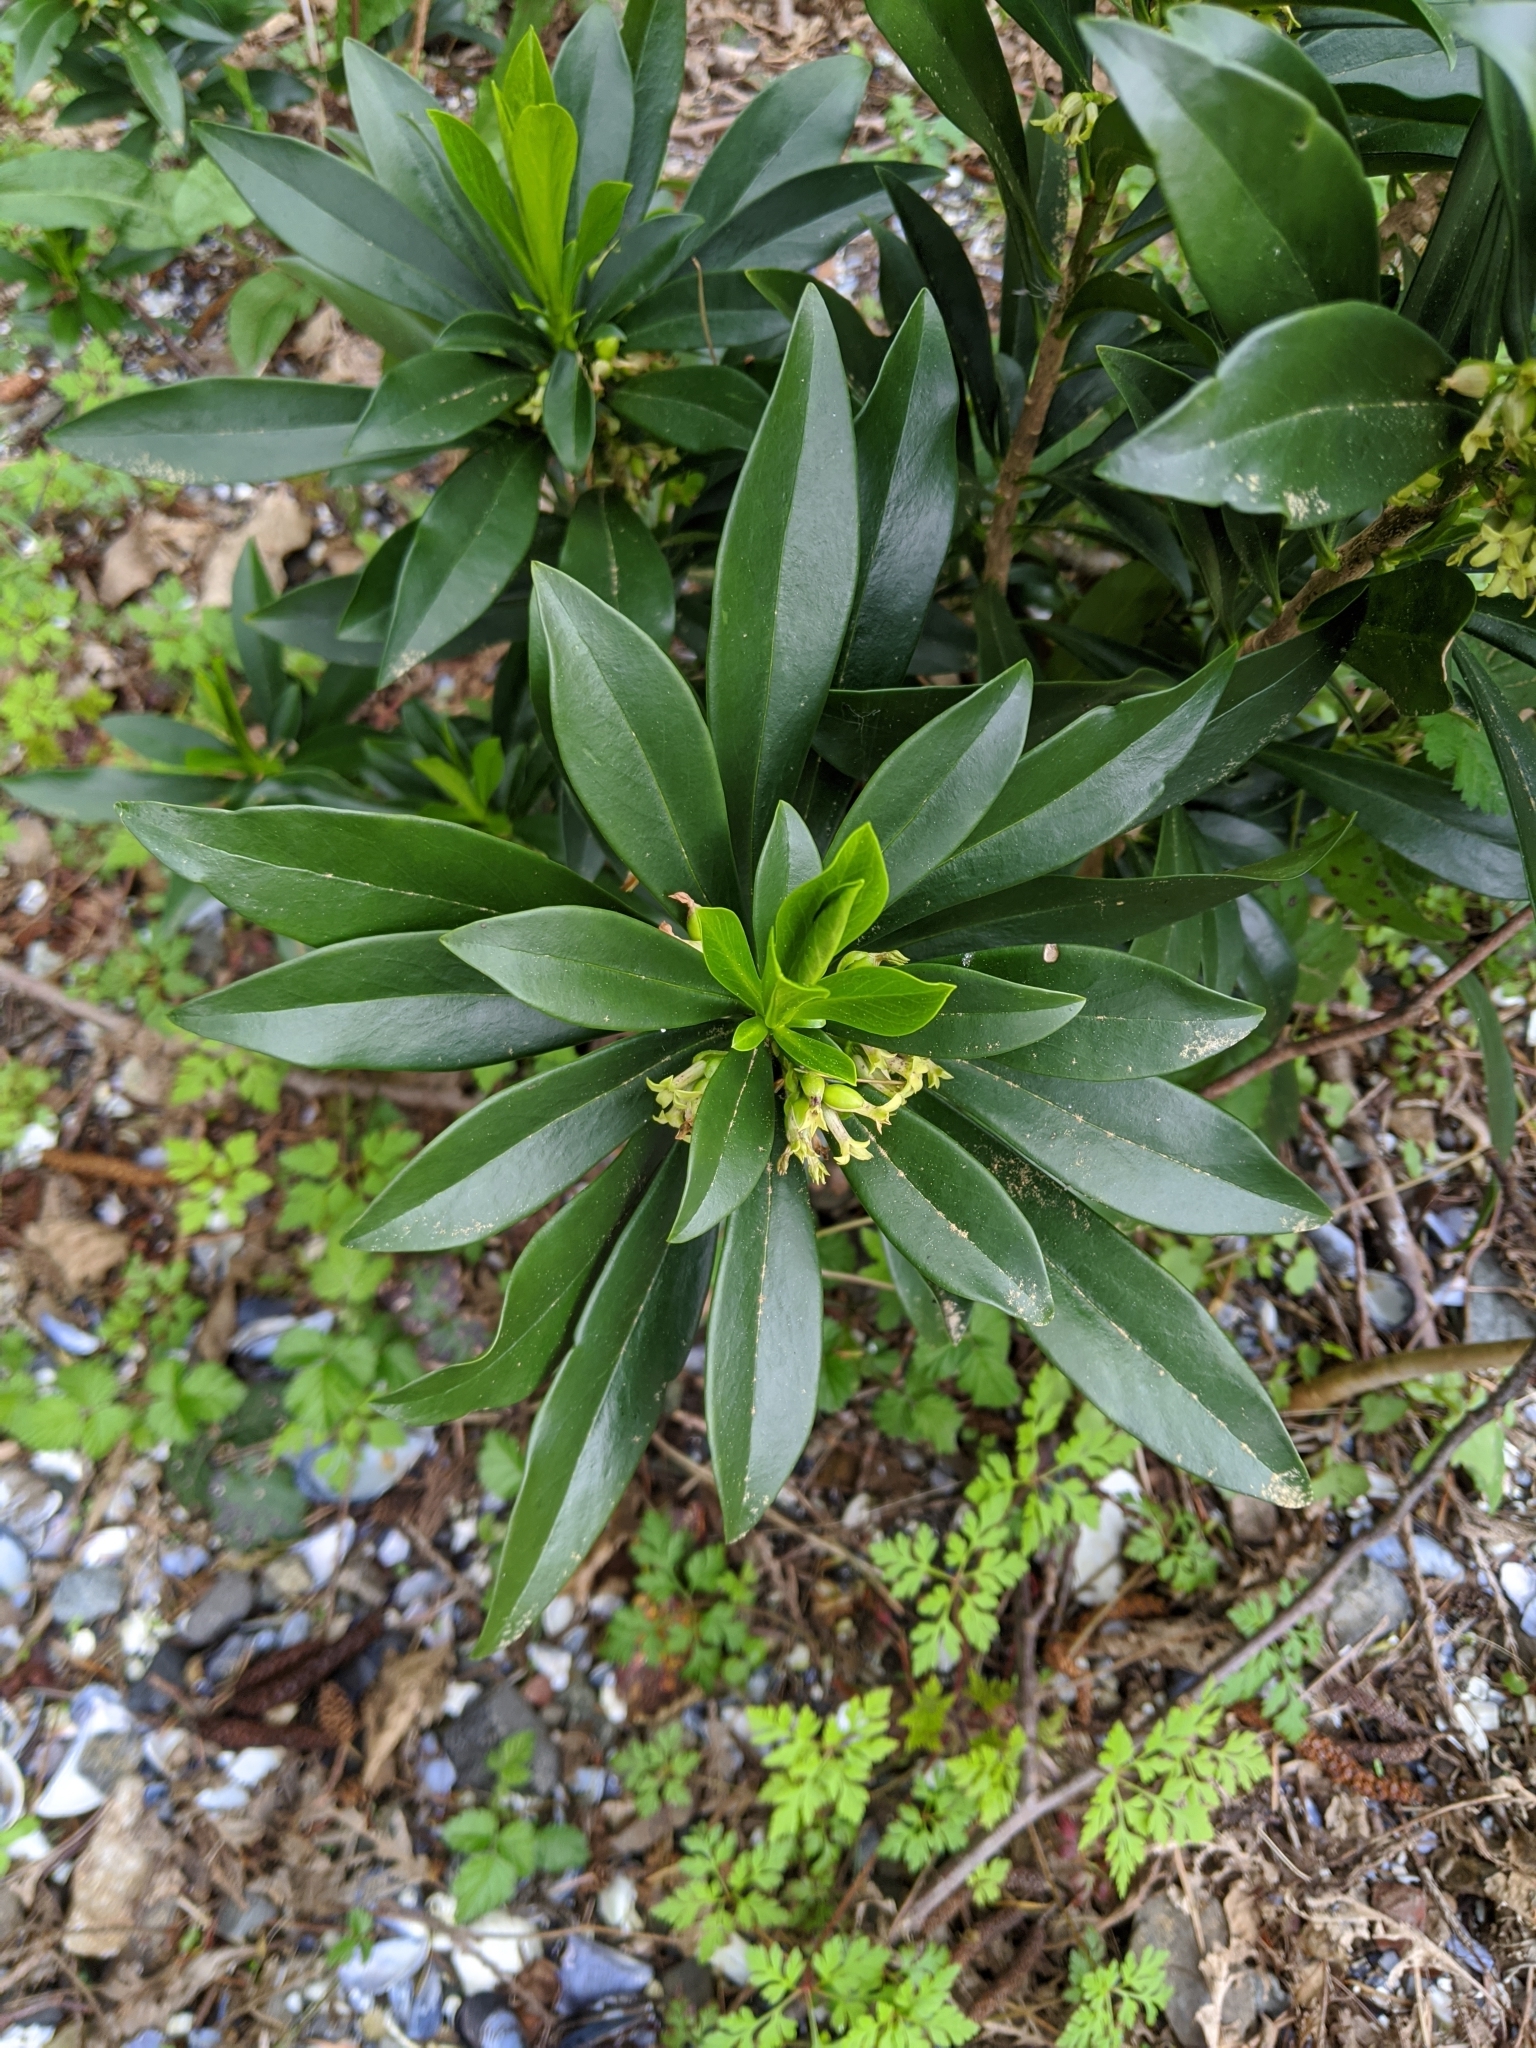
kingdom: Plantae
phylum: Tracheophyta
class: Magnoliopsida
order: Malvales
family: Thymelaeaceae
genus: Daphne
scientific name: Daphne laureola
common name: Spurge-laurel
